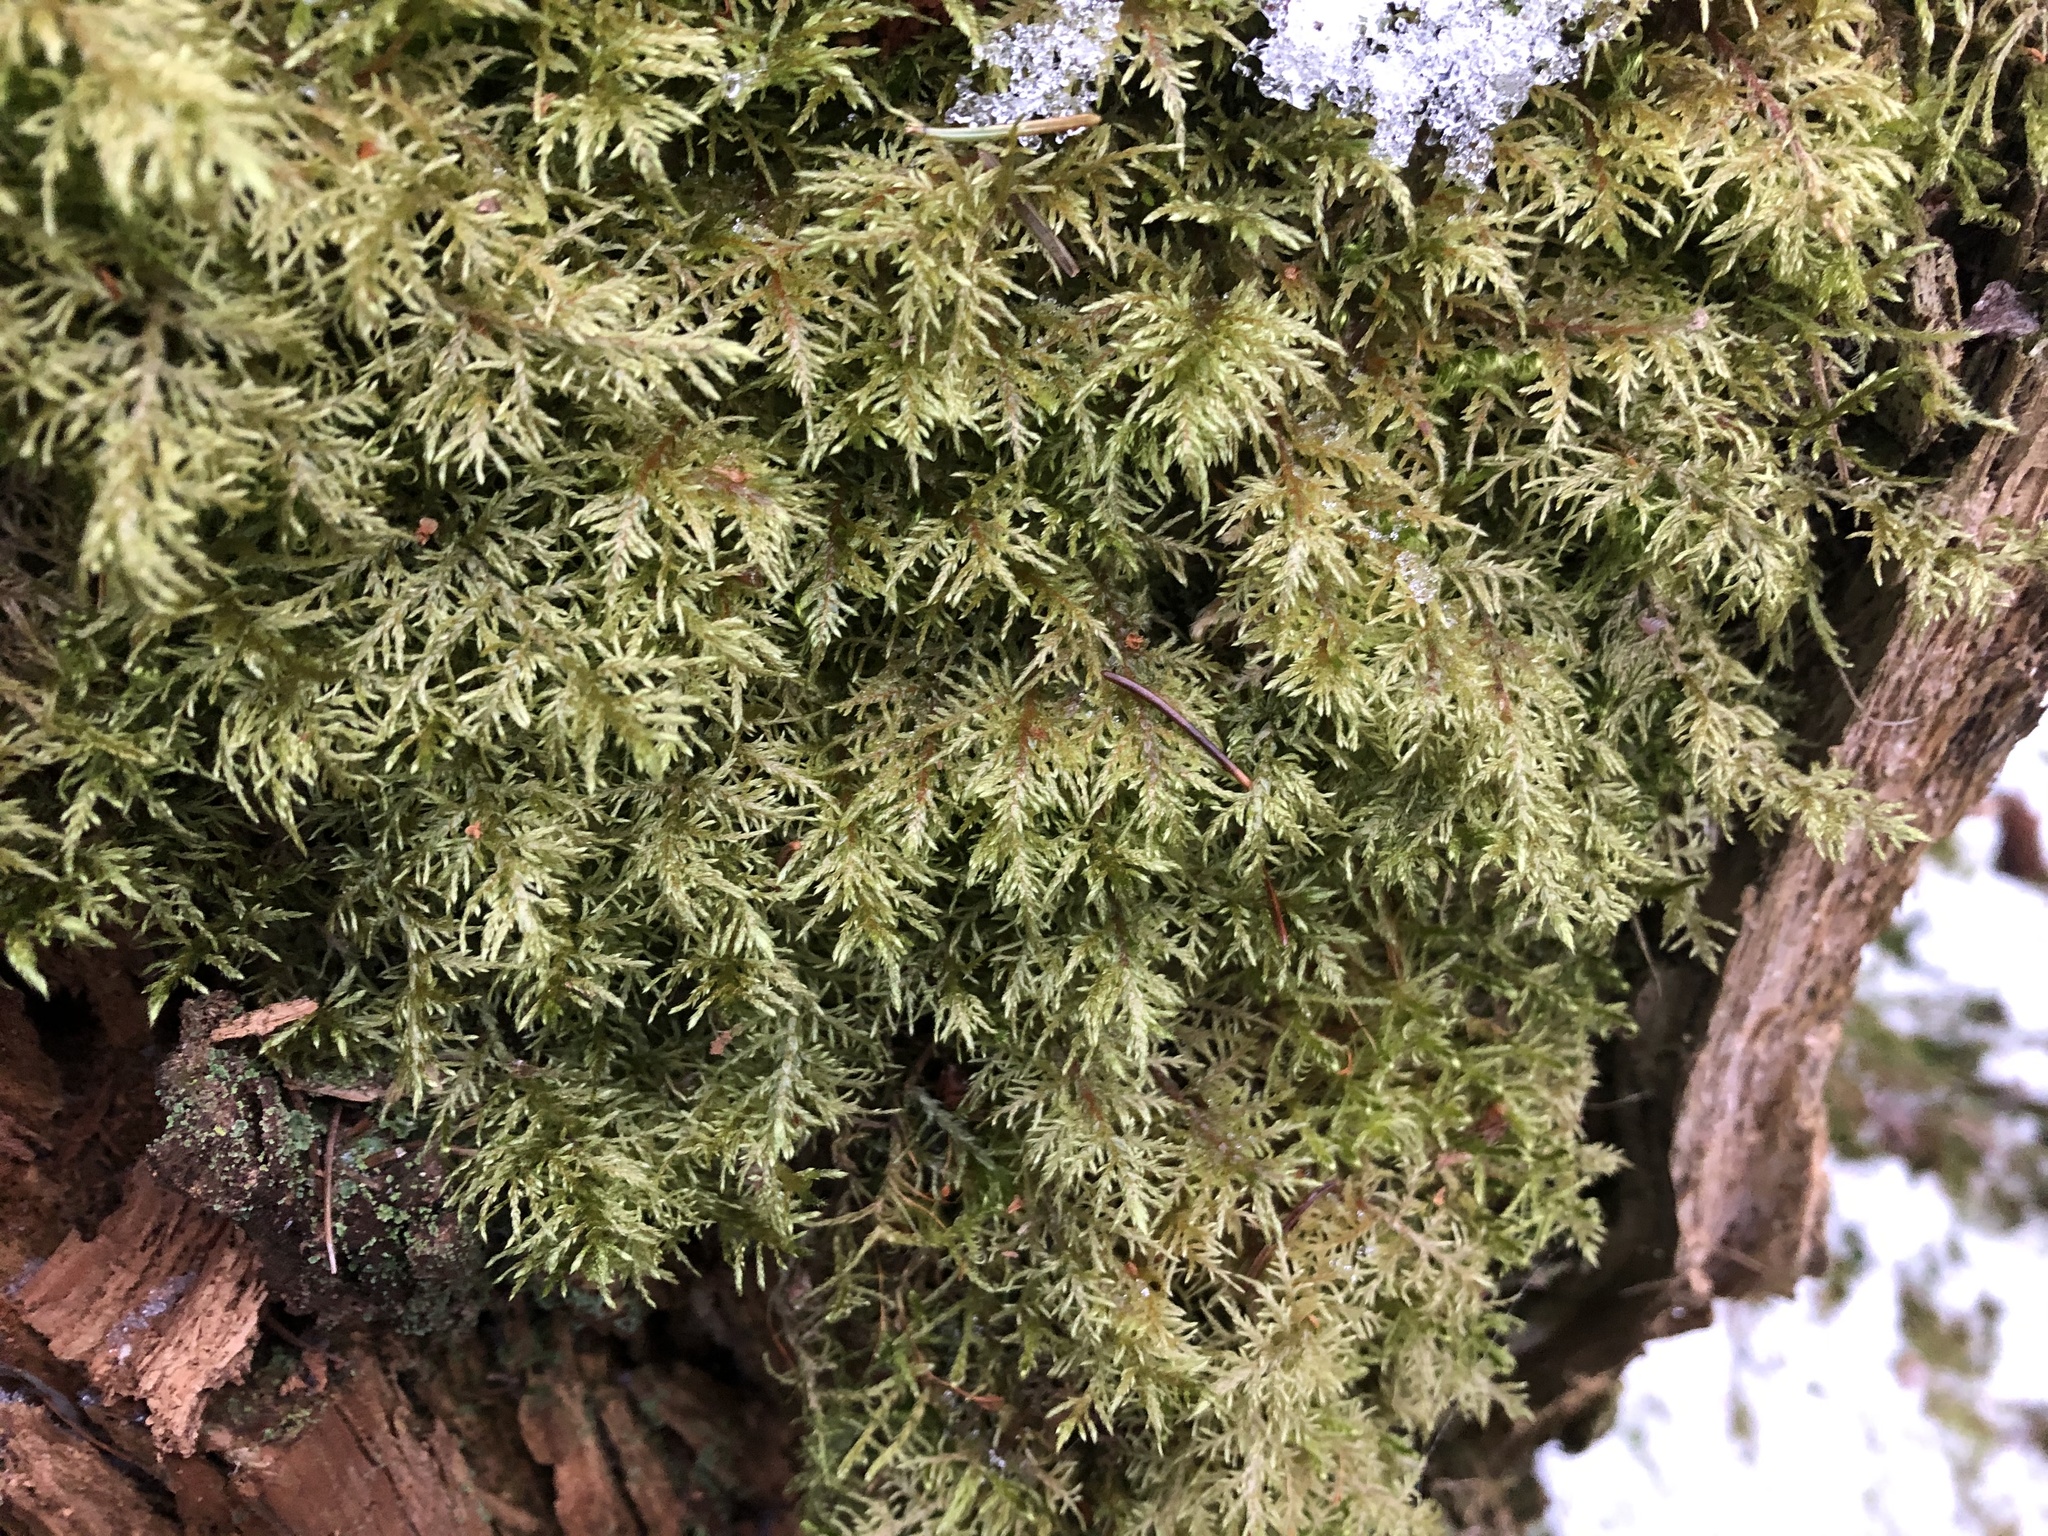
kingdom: Plantae
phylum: Bryophyta
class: Bryopsida
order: Hypnales
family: Hylocomiaceae
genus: Hylocomium
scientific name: Hylocomium splendens
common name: Stairstep moss
